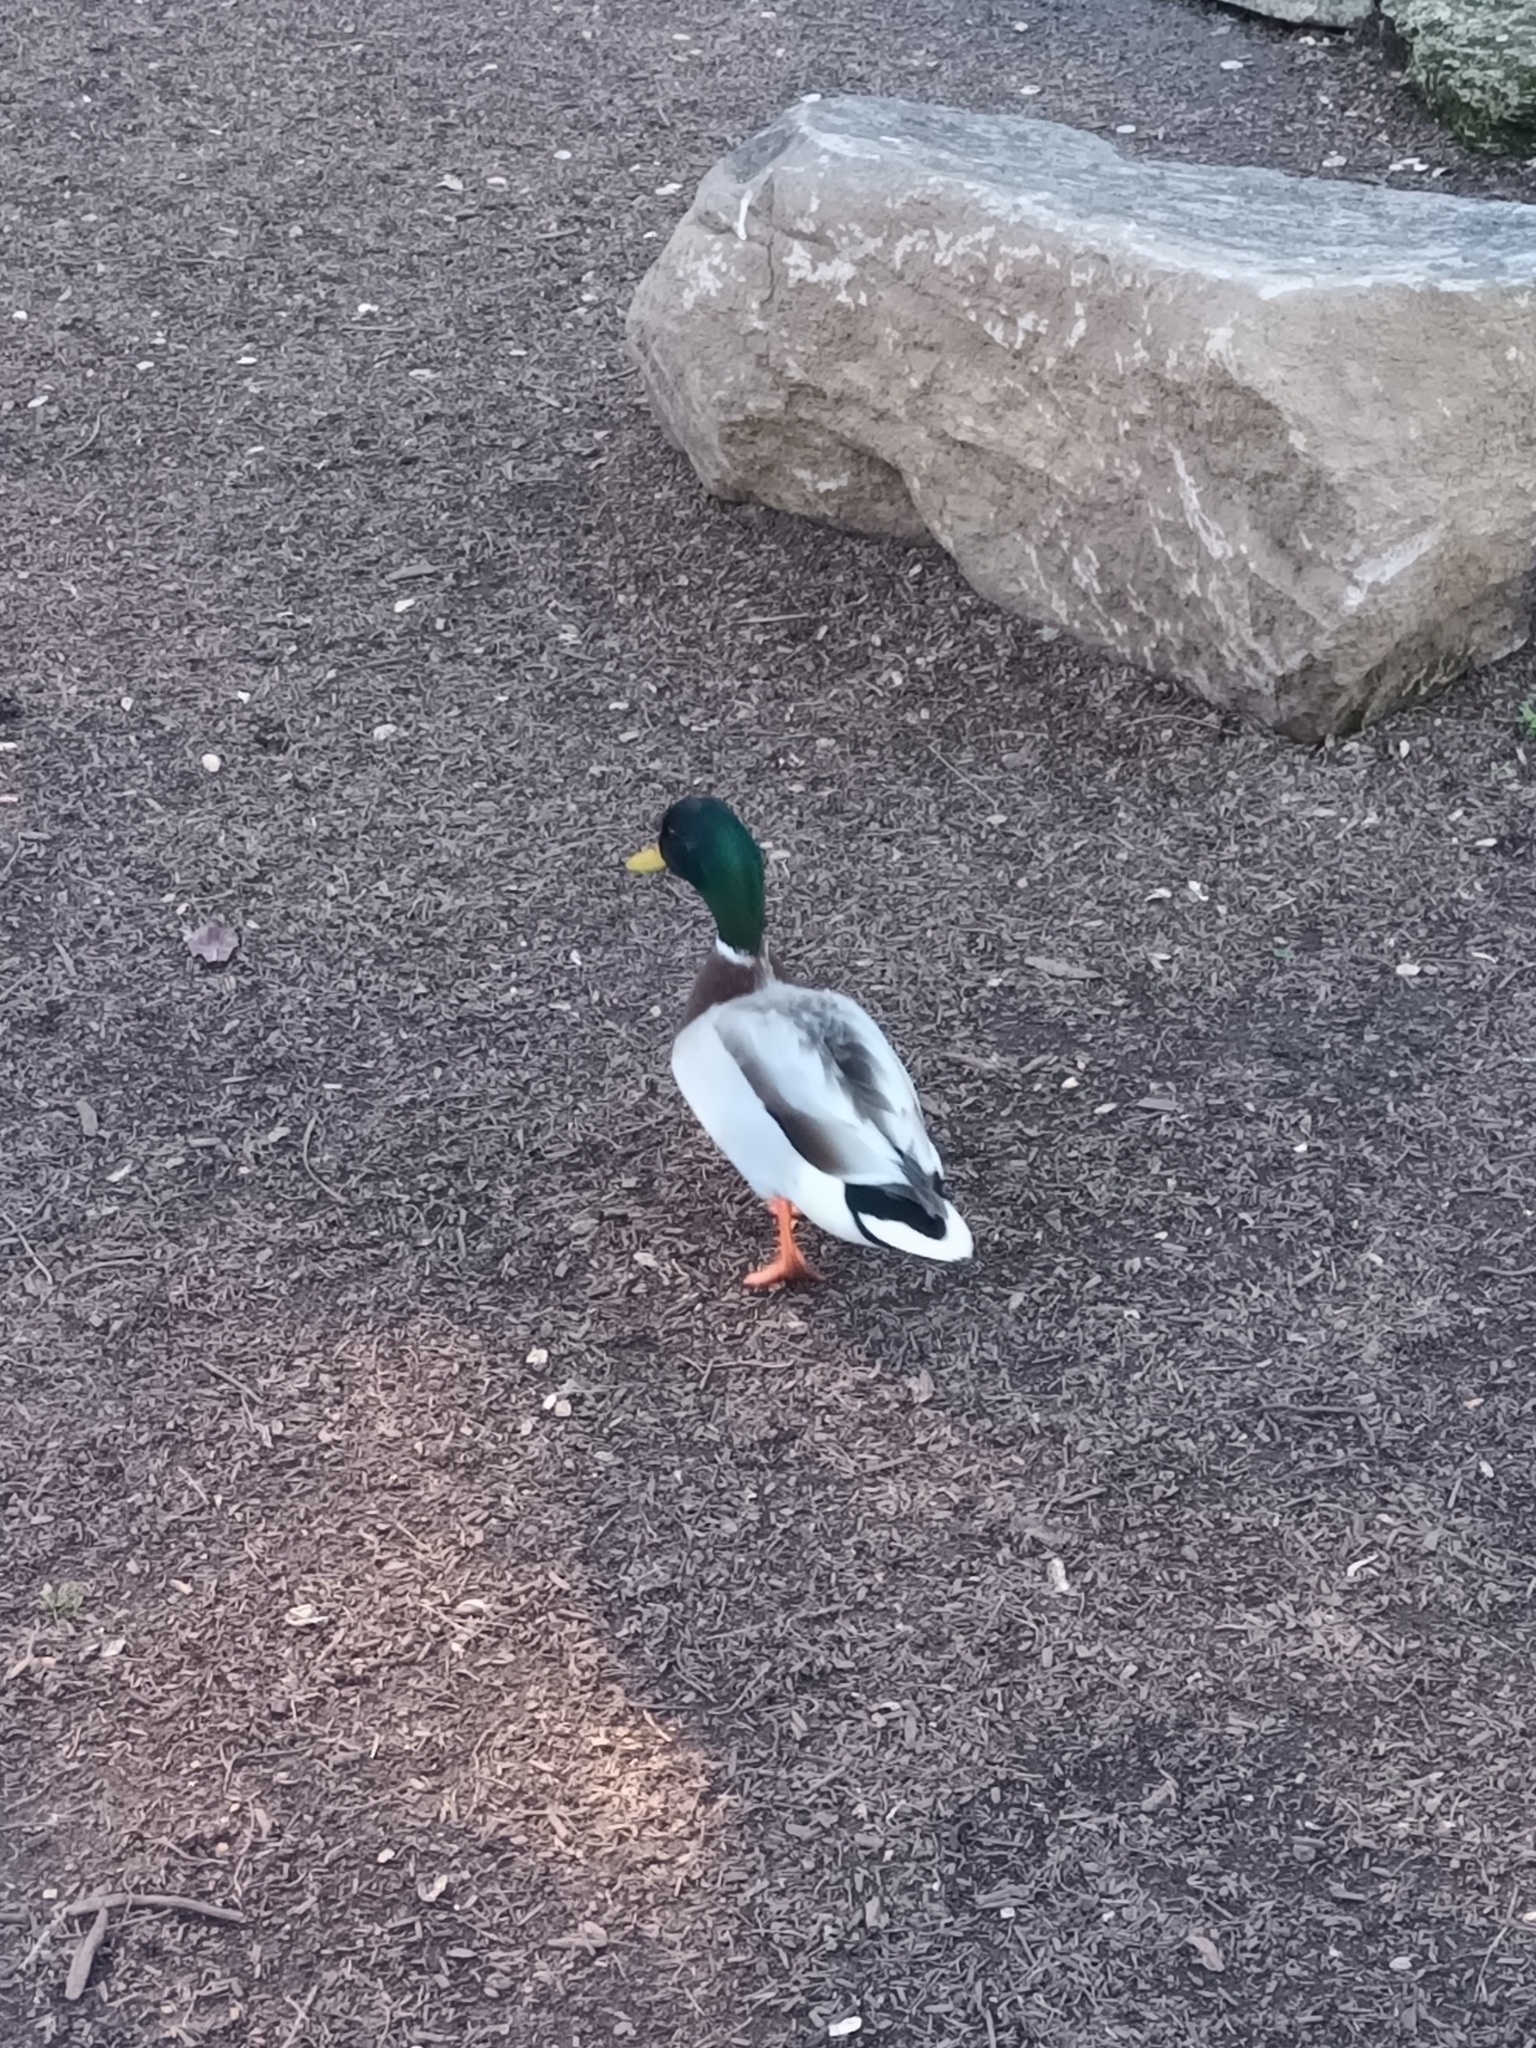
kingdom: Animalia
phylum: Chordata
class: Aves
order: Anseriformes
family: Anatidae
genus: Anas
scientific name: Anas platyrhynchos
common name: Mallard
